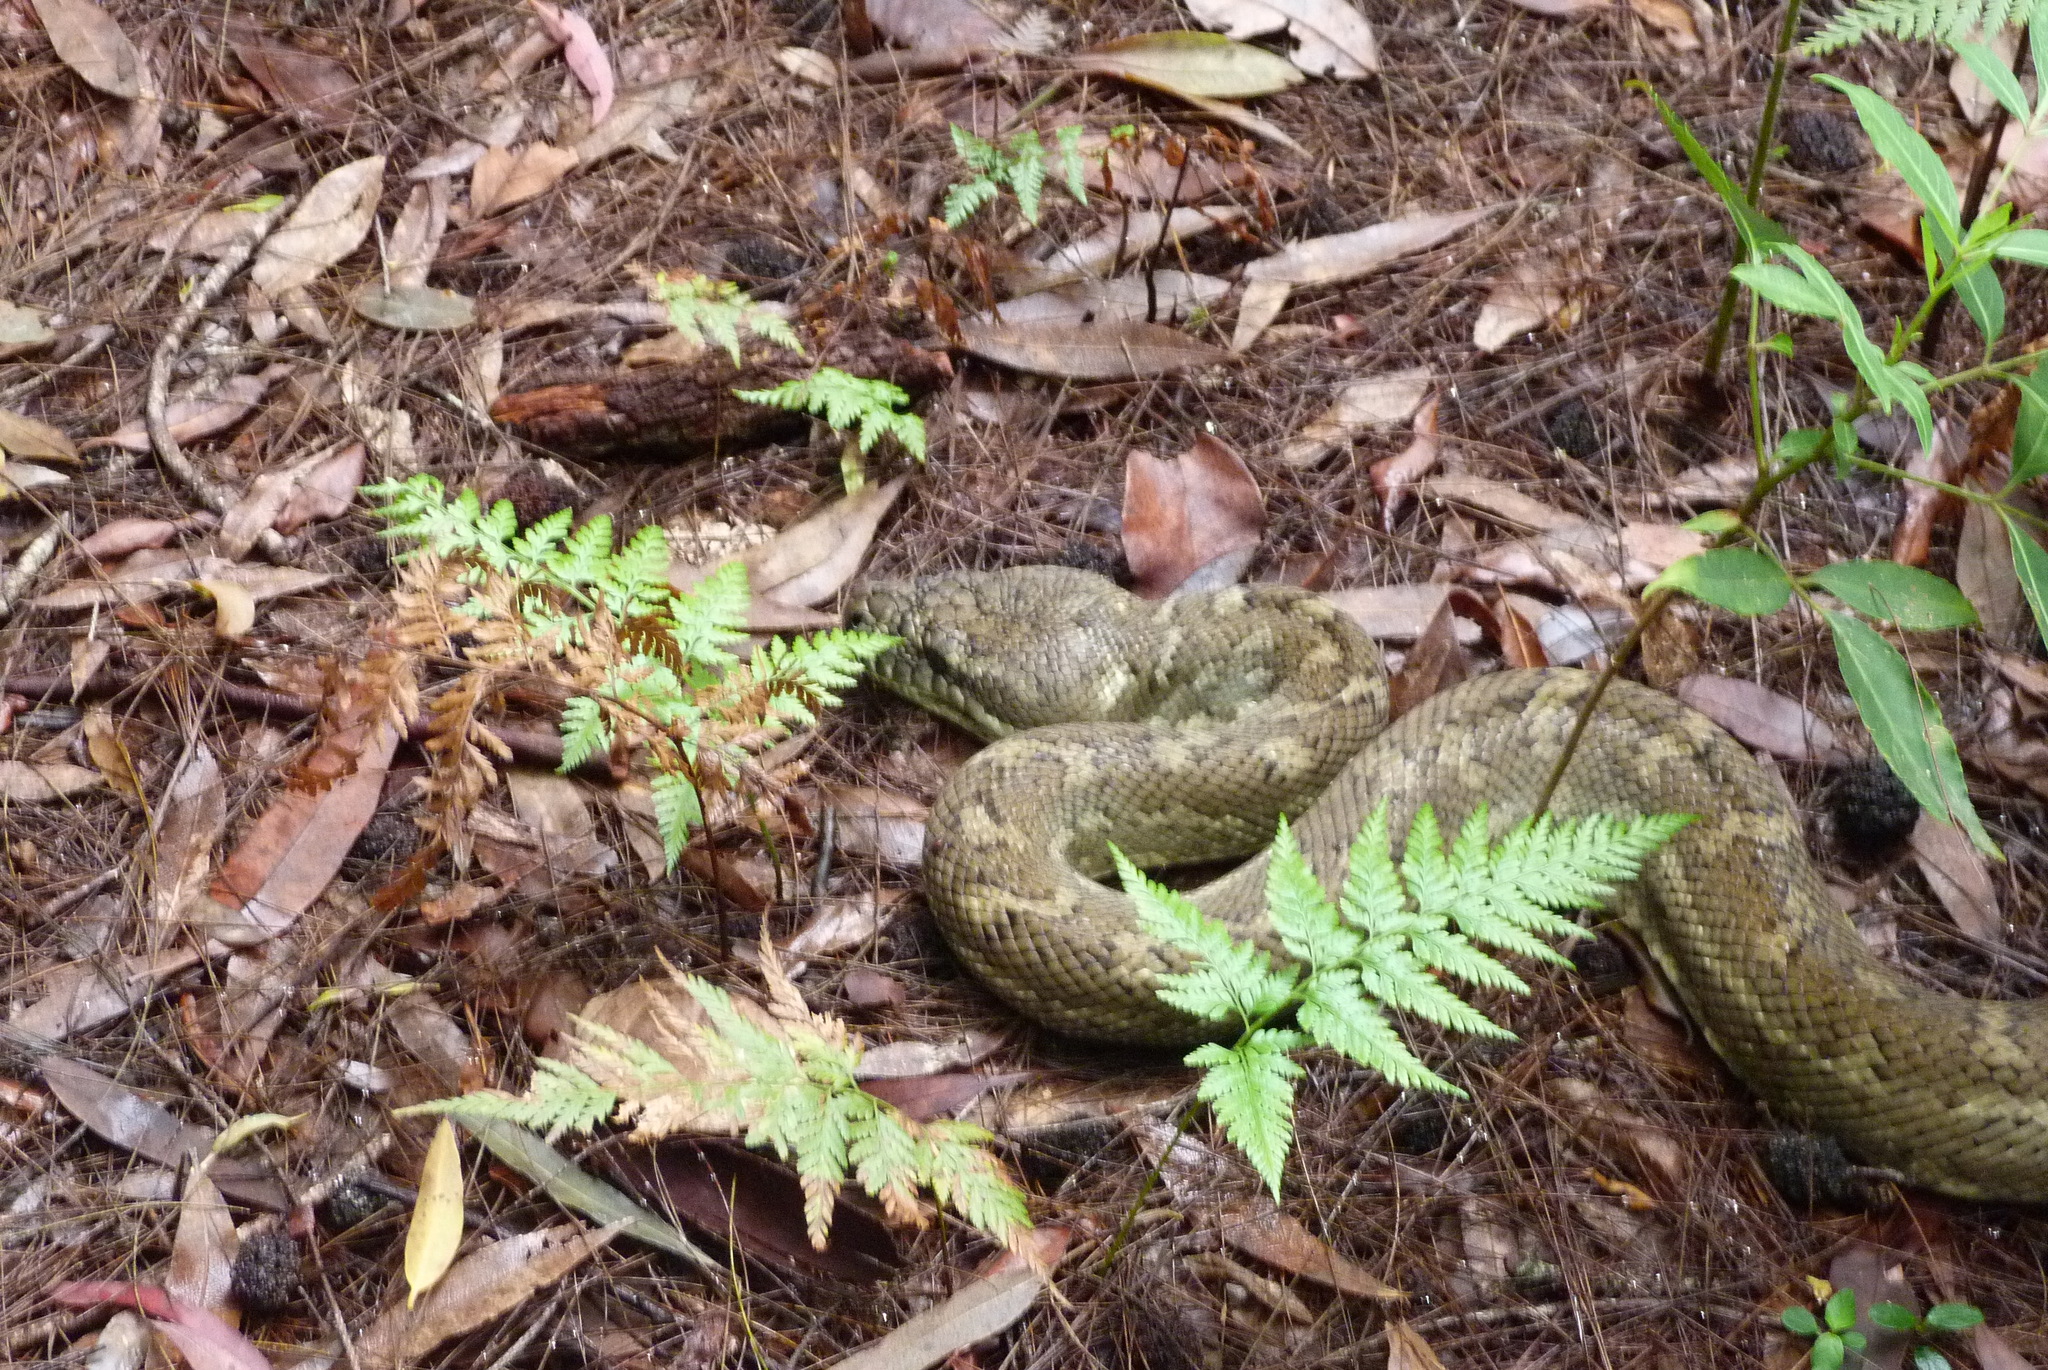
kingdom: Animalia
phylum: Chordata
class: Squamata
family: Pythonidae
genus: Morelia
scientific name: Morelia spilota
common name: Carpet python
